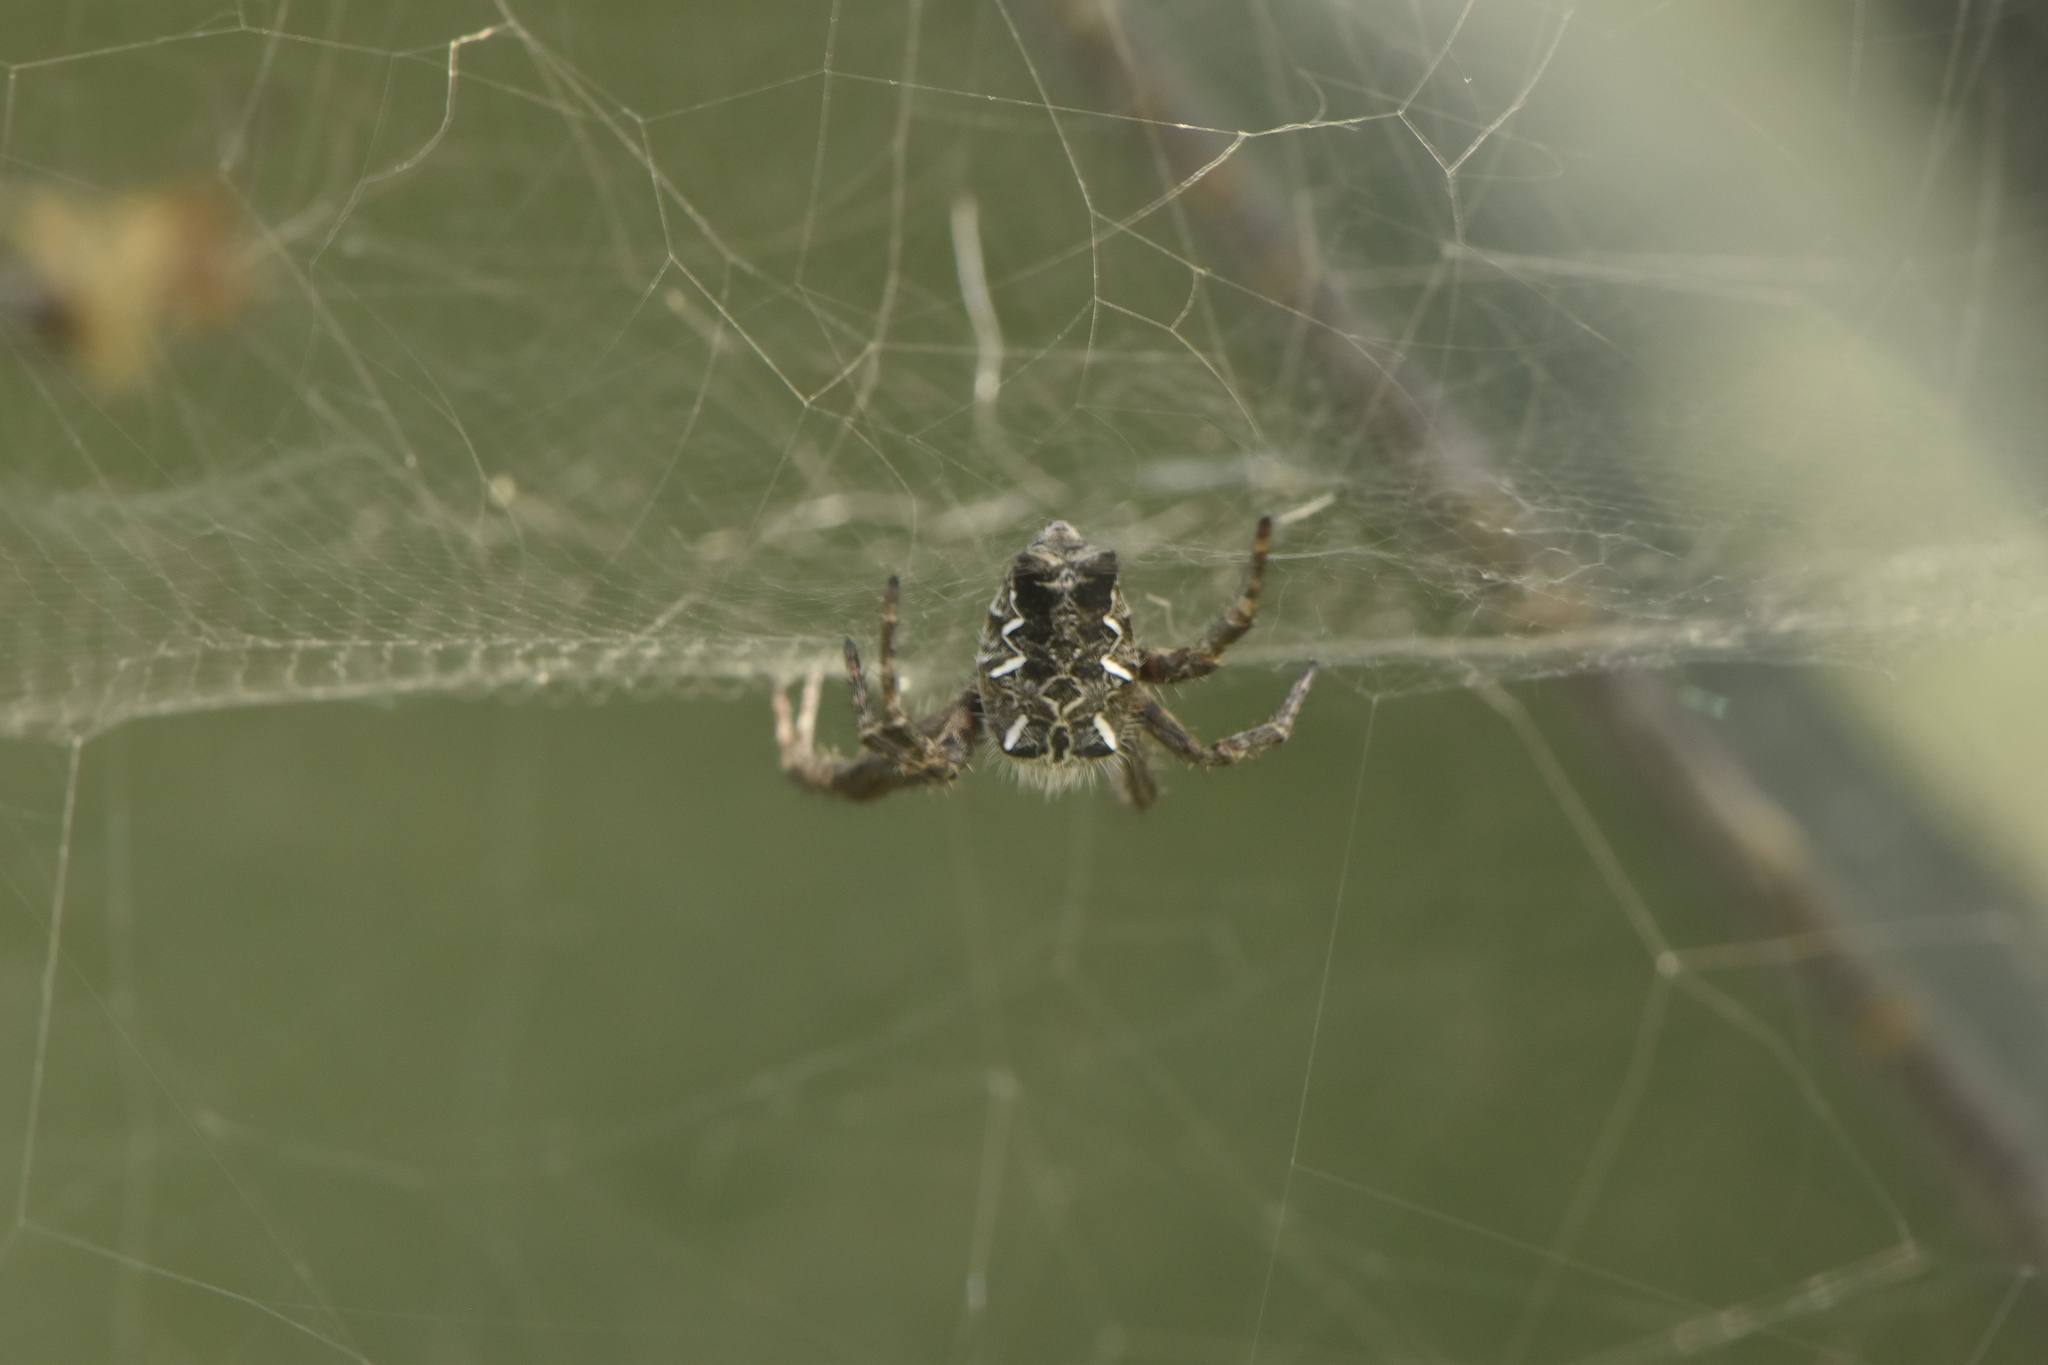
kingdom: Animalia
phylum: Arthropoda
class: Arachnida
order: Araneae
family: Araneidae
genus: Cyrtophora
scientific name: Cyrtophora citricola
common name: Orb weavers
